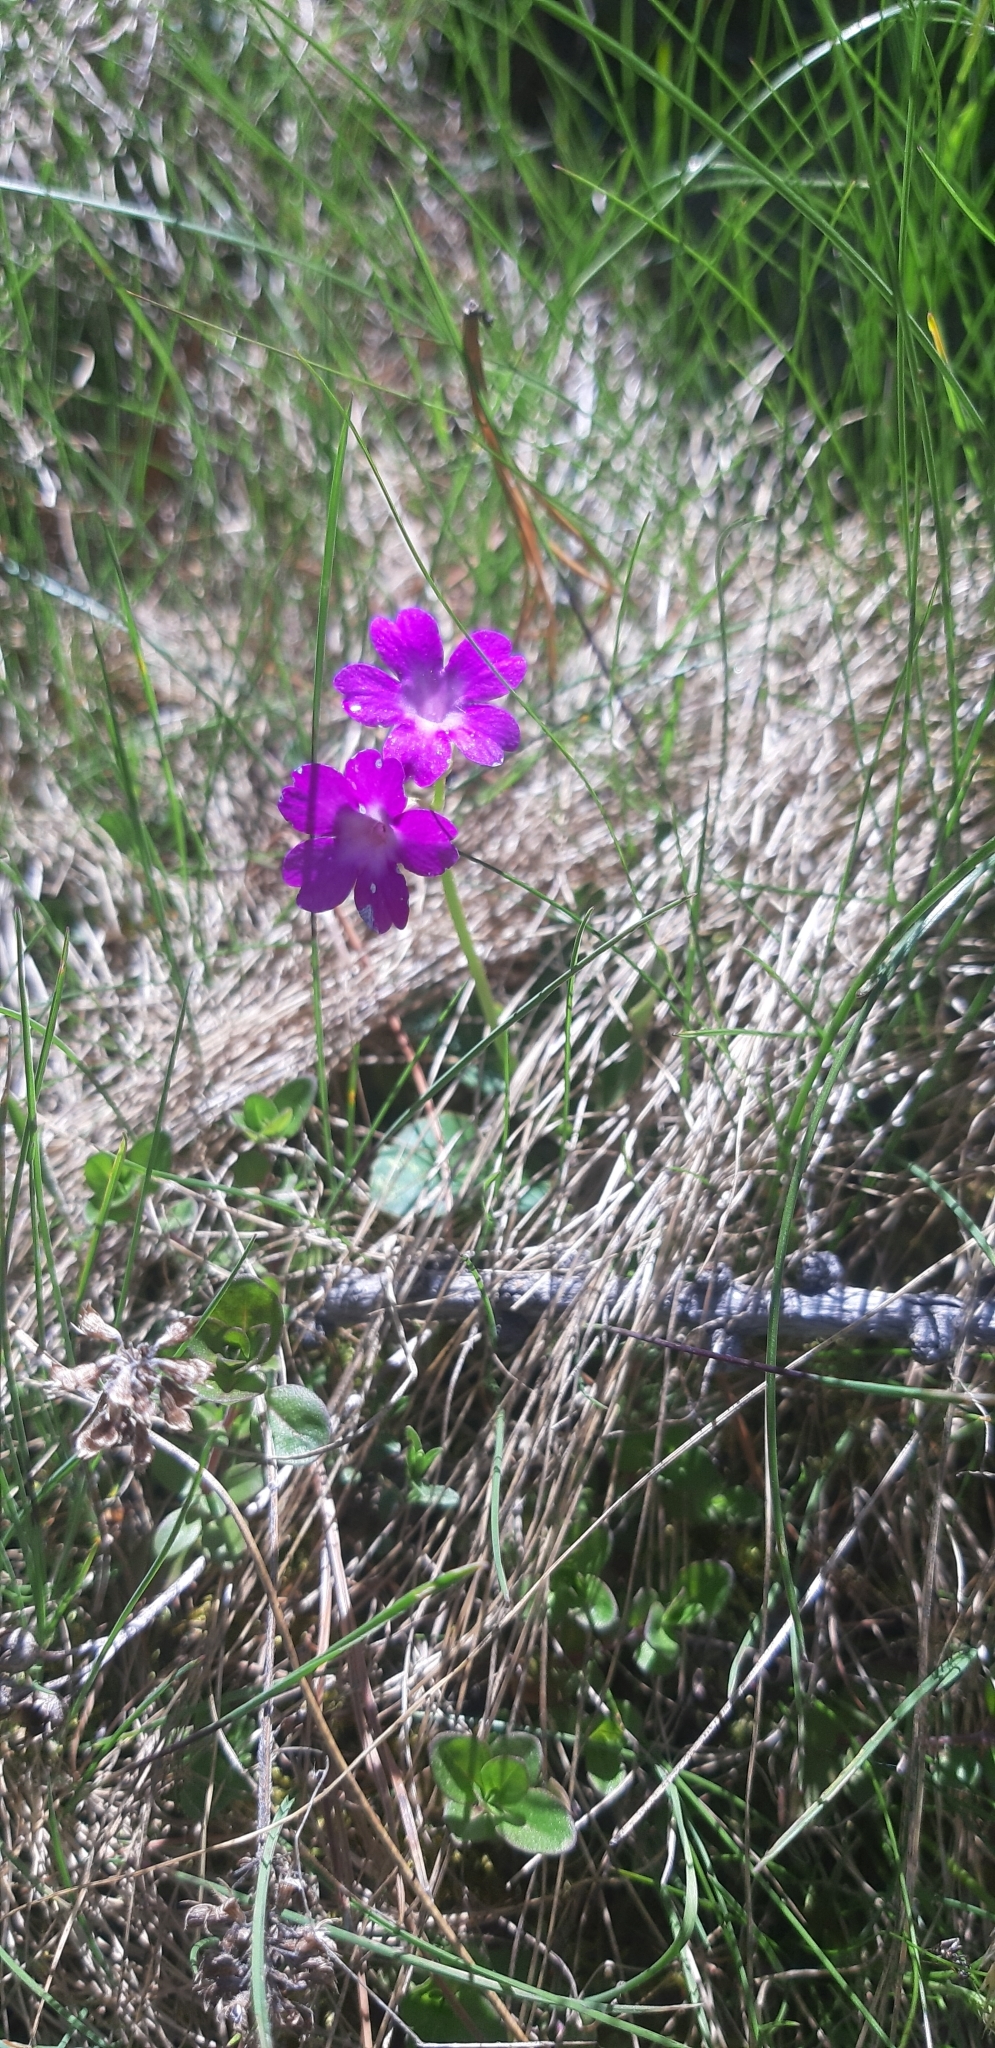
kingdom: Plantae
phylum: Tracheophyta
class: Magnoliopsida
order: Ericales
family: Primulaceae
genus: Primula
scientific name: Primula pedemontana
